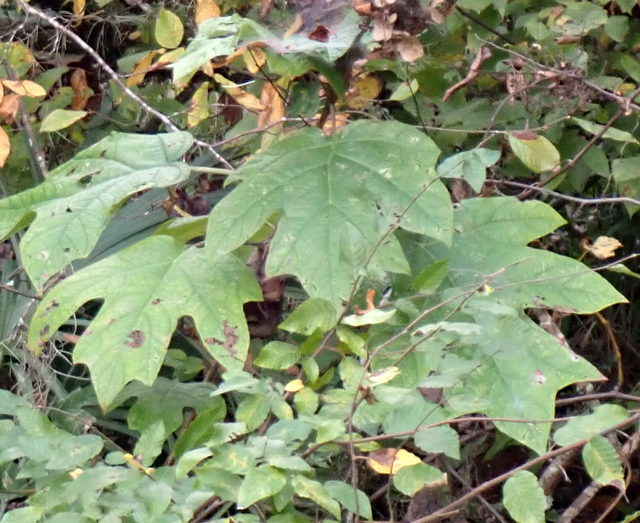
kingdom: Plantae
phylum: Tracheophyta
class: Magnoliopsida
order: Cornales
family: Hydrangeaceae
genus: Hydrangea
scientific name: Hydrangea quercifolia
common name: Oak-leaf hydrangea
